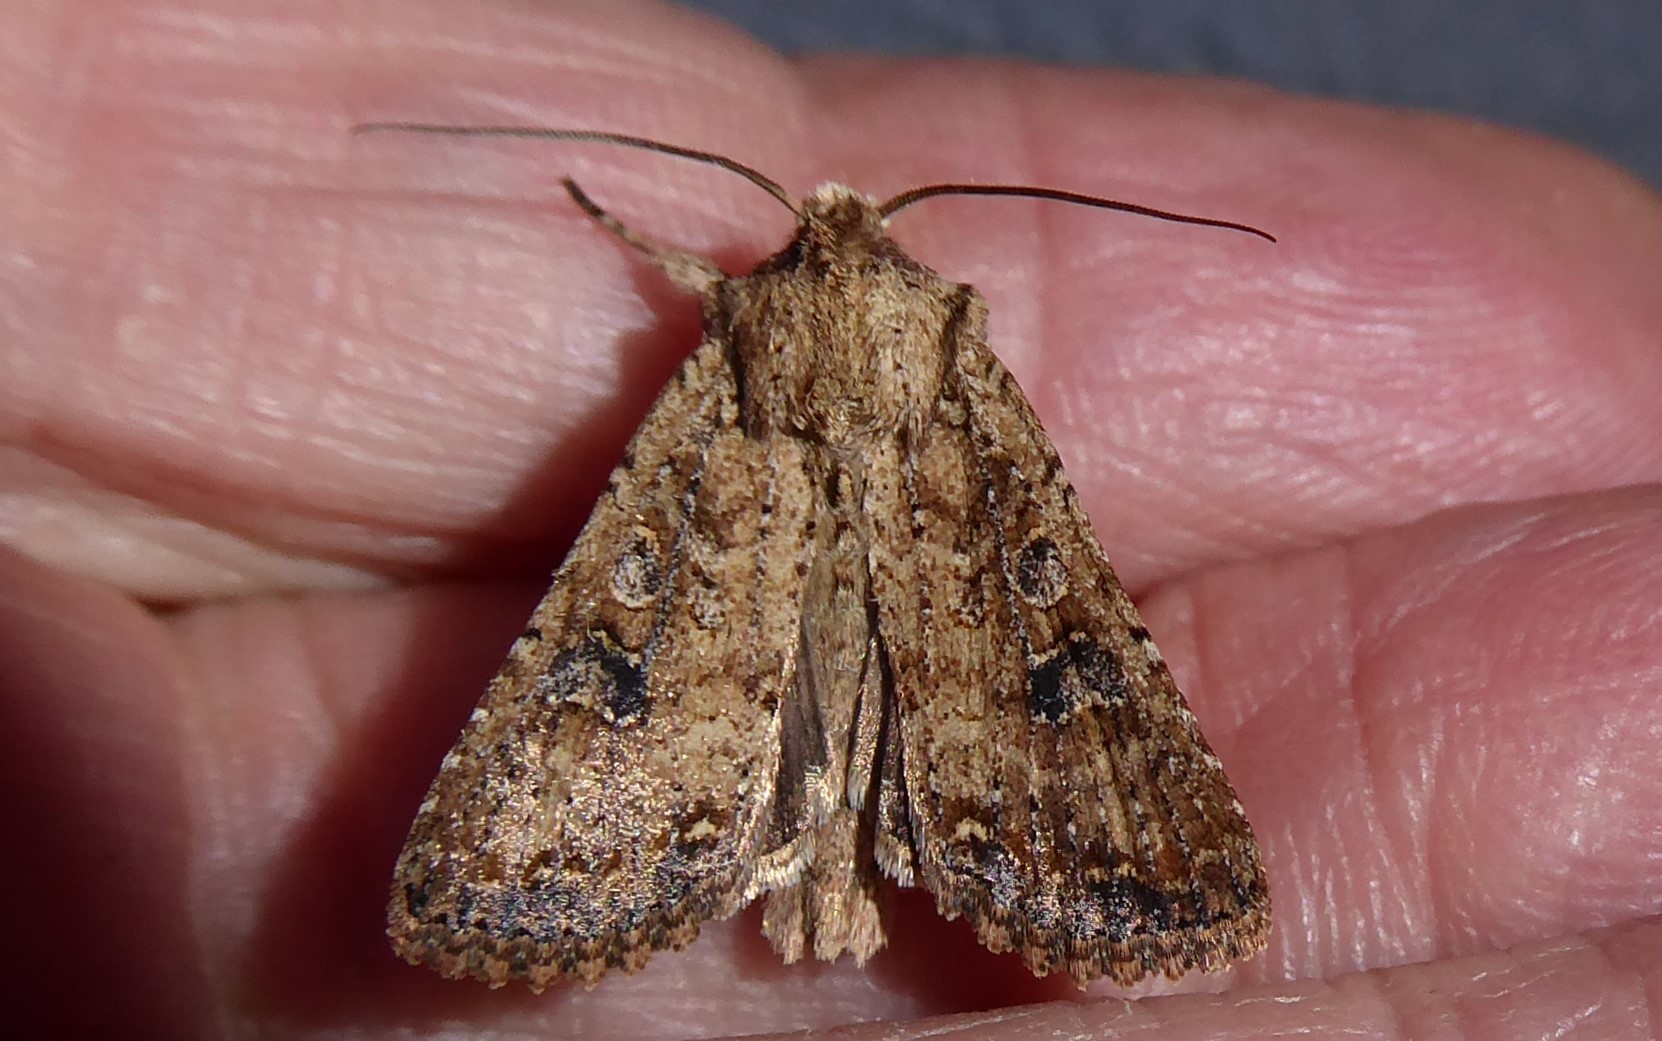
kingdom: Animalia
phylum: Arthropoda
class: Insecta
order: Lepidoptera
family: Noctuidae
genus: Ichneutica
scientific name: Ichneutica morosa
